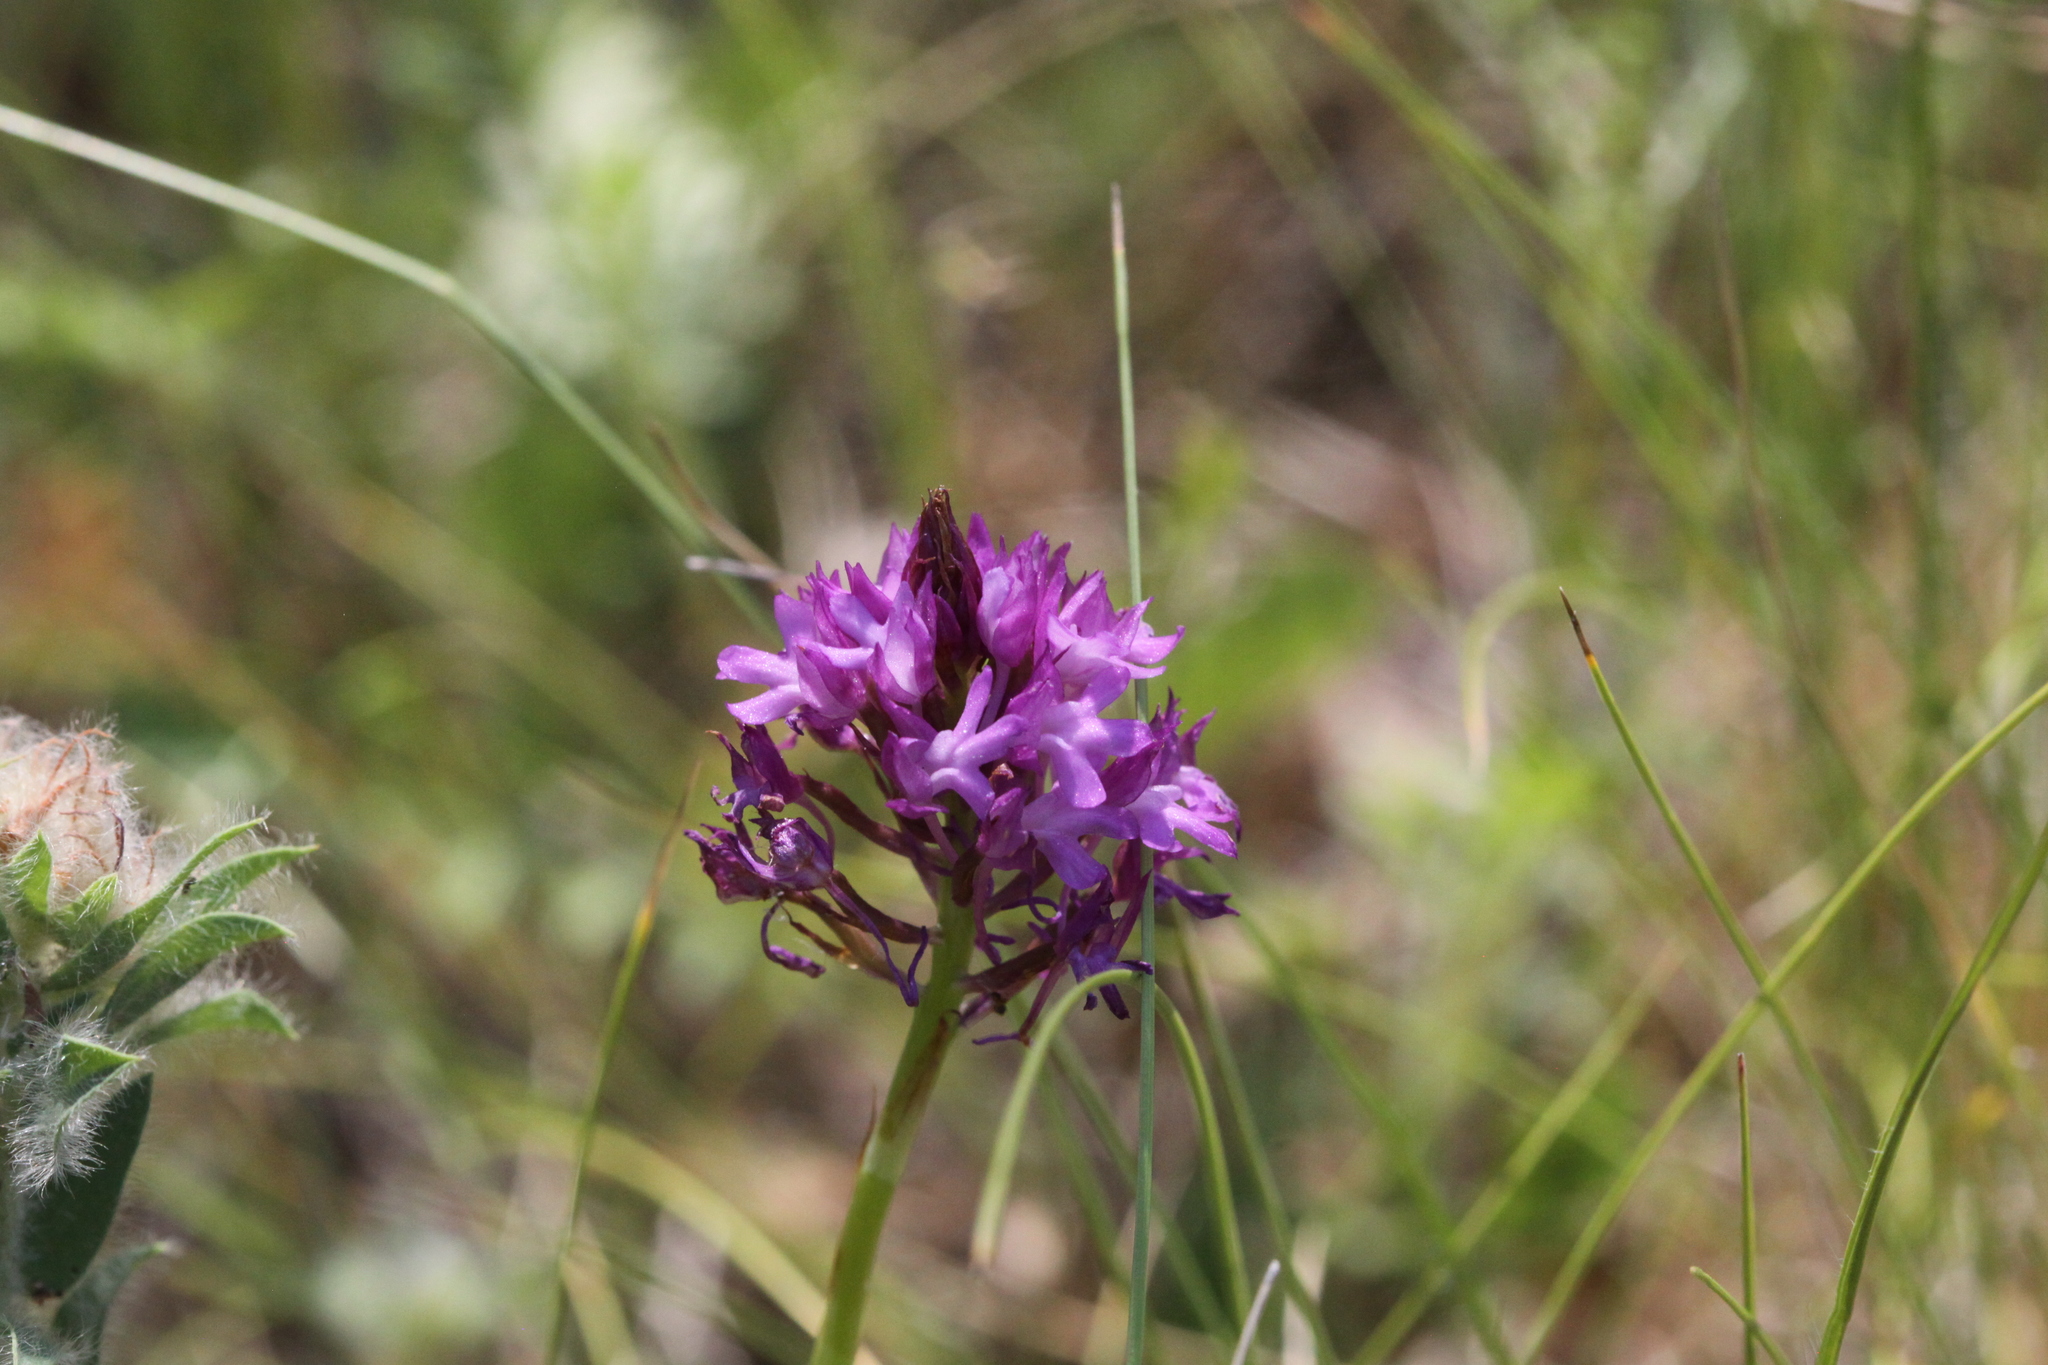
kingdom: Plantae
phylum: Tracheophyta
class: Liliopsida
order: Asparagales
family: Orchidaceae
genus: Anacamptis
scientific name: Anacamptis pyramidalis
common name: Pyramidal orchid
